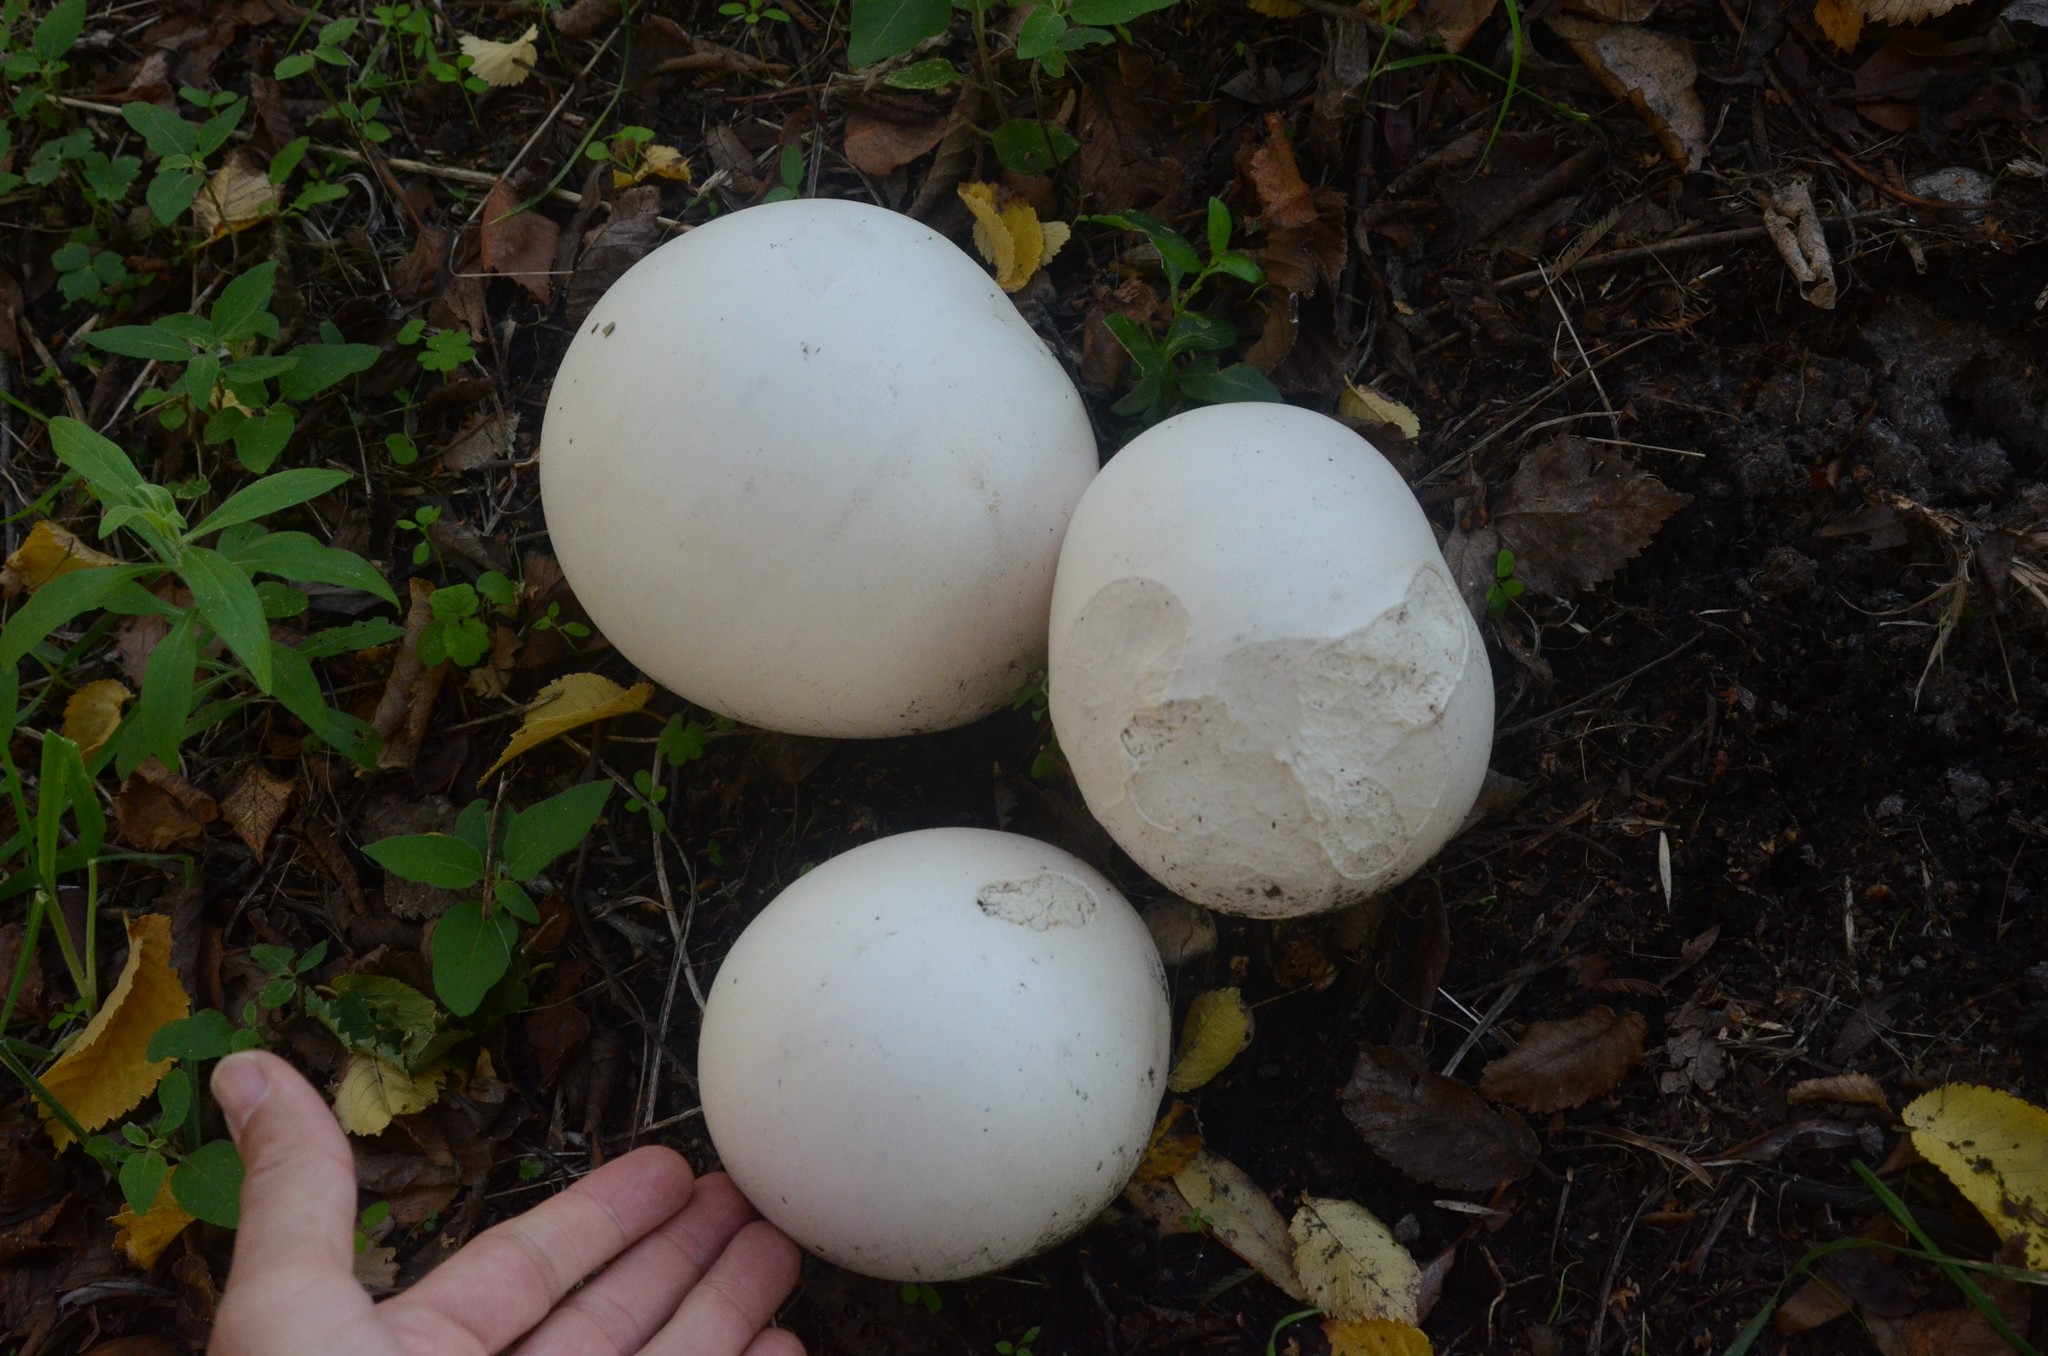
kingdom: Fungi
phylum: Basidiomycota
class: Agaricomycetes
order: Agaricales
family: Lycoperdaceae
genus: Calvatia
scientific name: Calvatia gigantea
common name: Giant puffball
